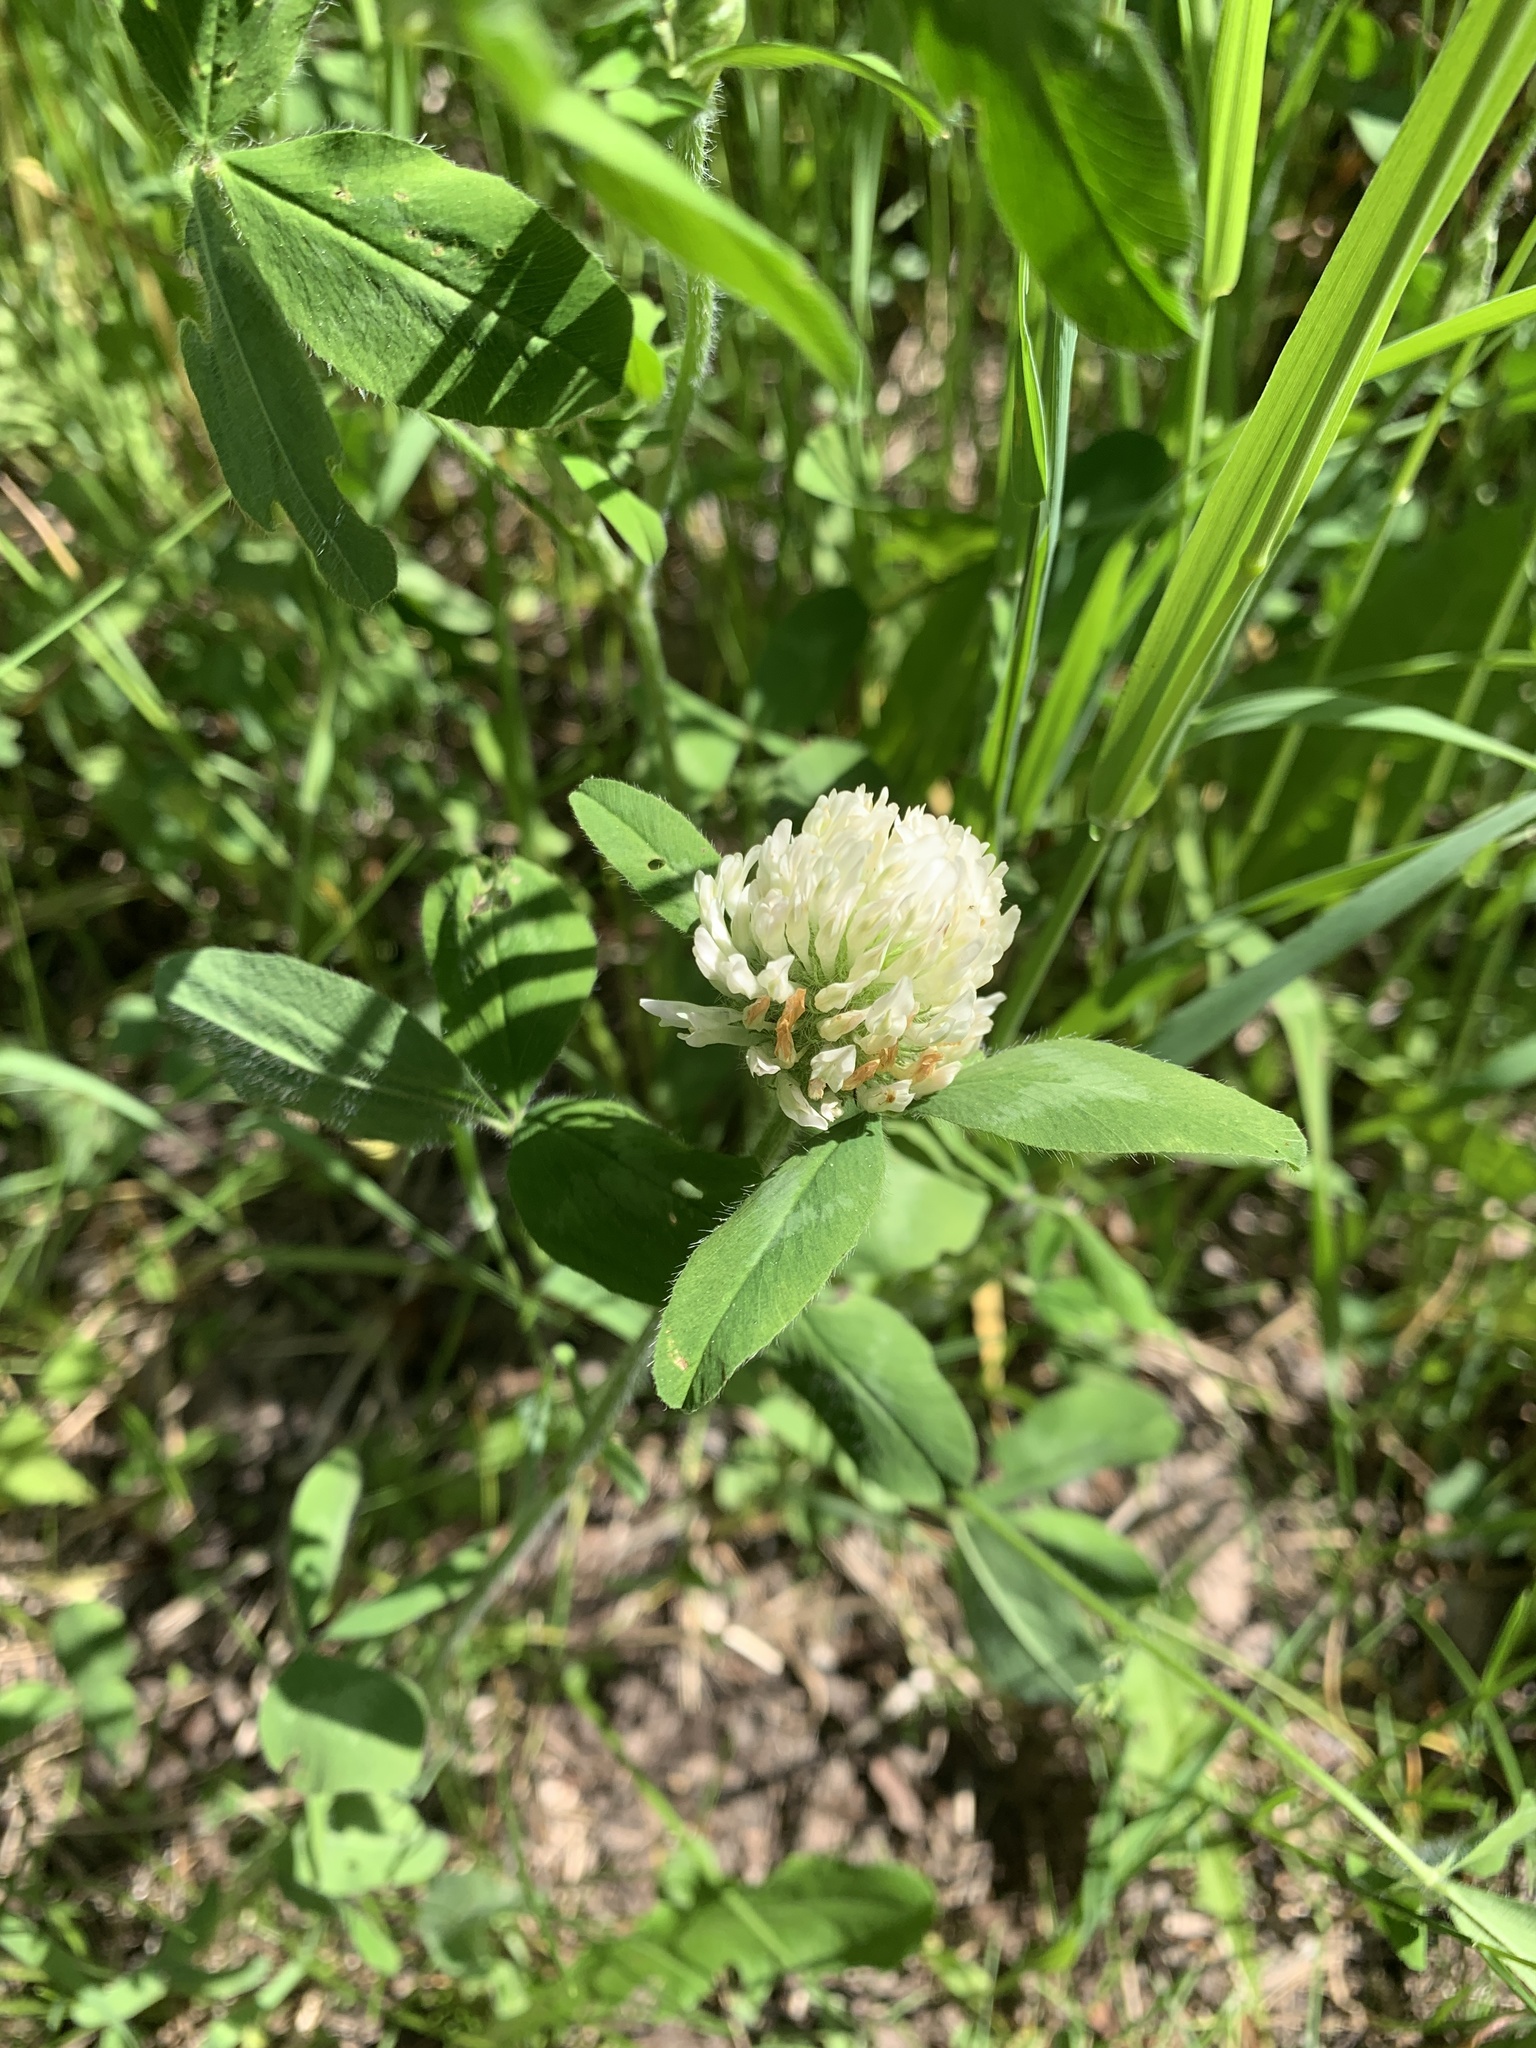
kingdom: Plantae
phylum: Tracheophyta
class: Magnoliopsida
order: Fabales
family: Fabaceae
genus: Trifolium
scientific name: Trifolium pratense
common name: Red clover
